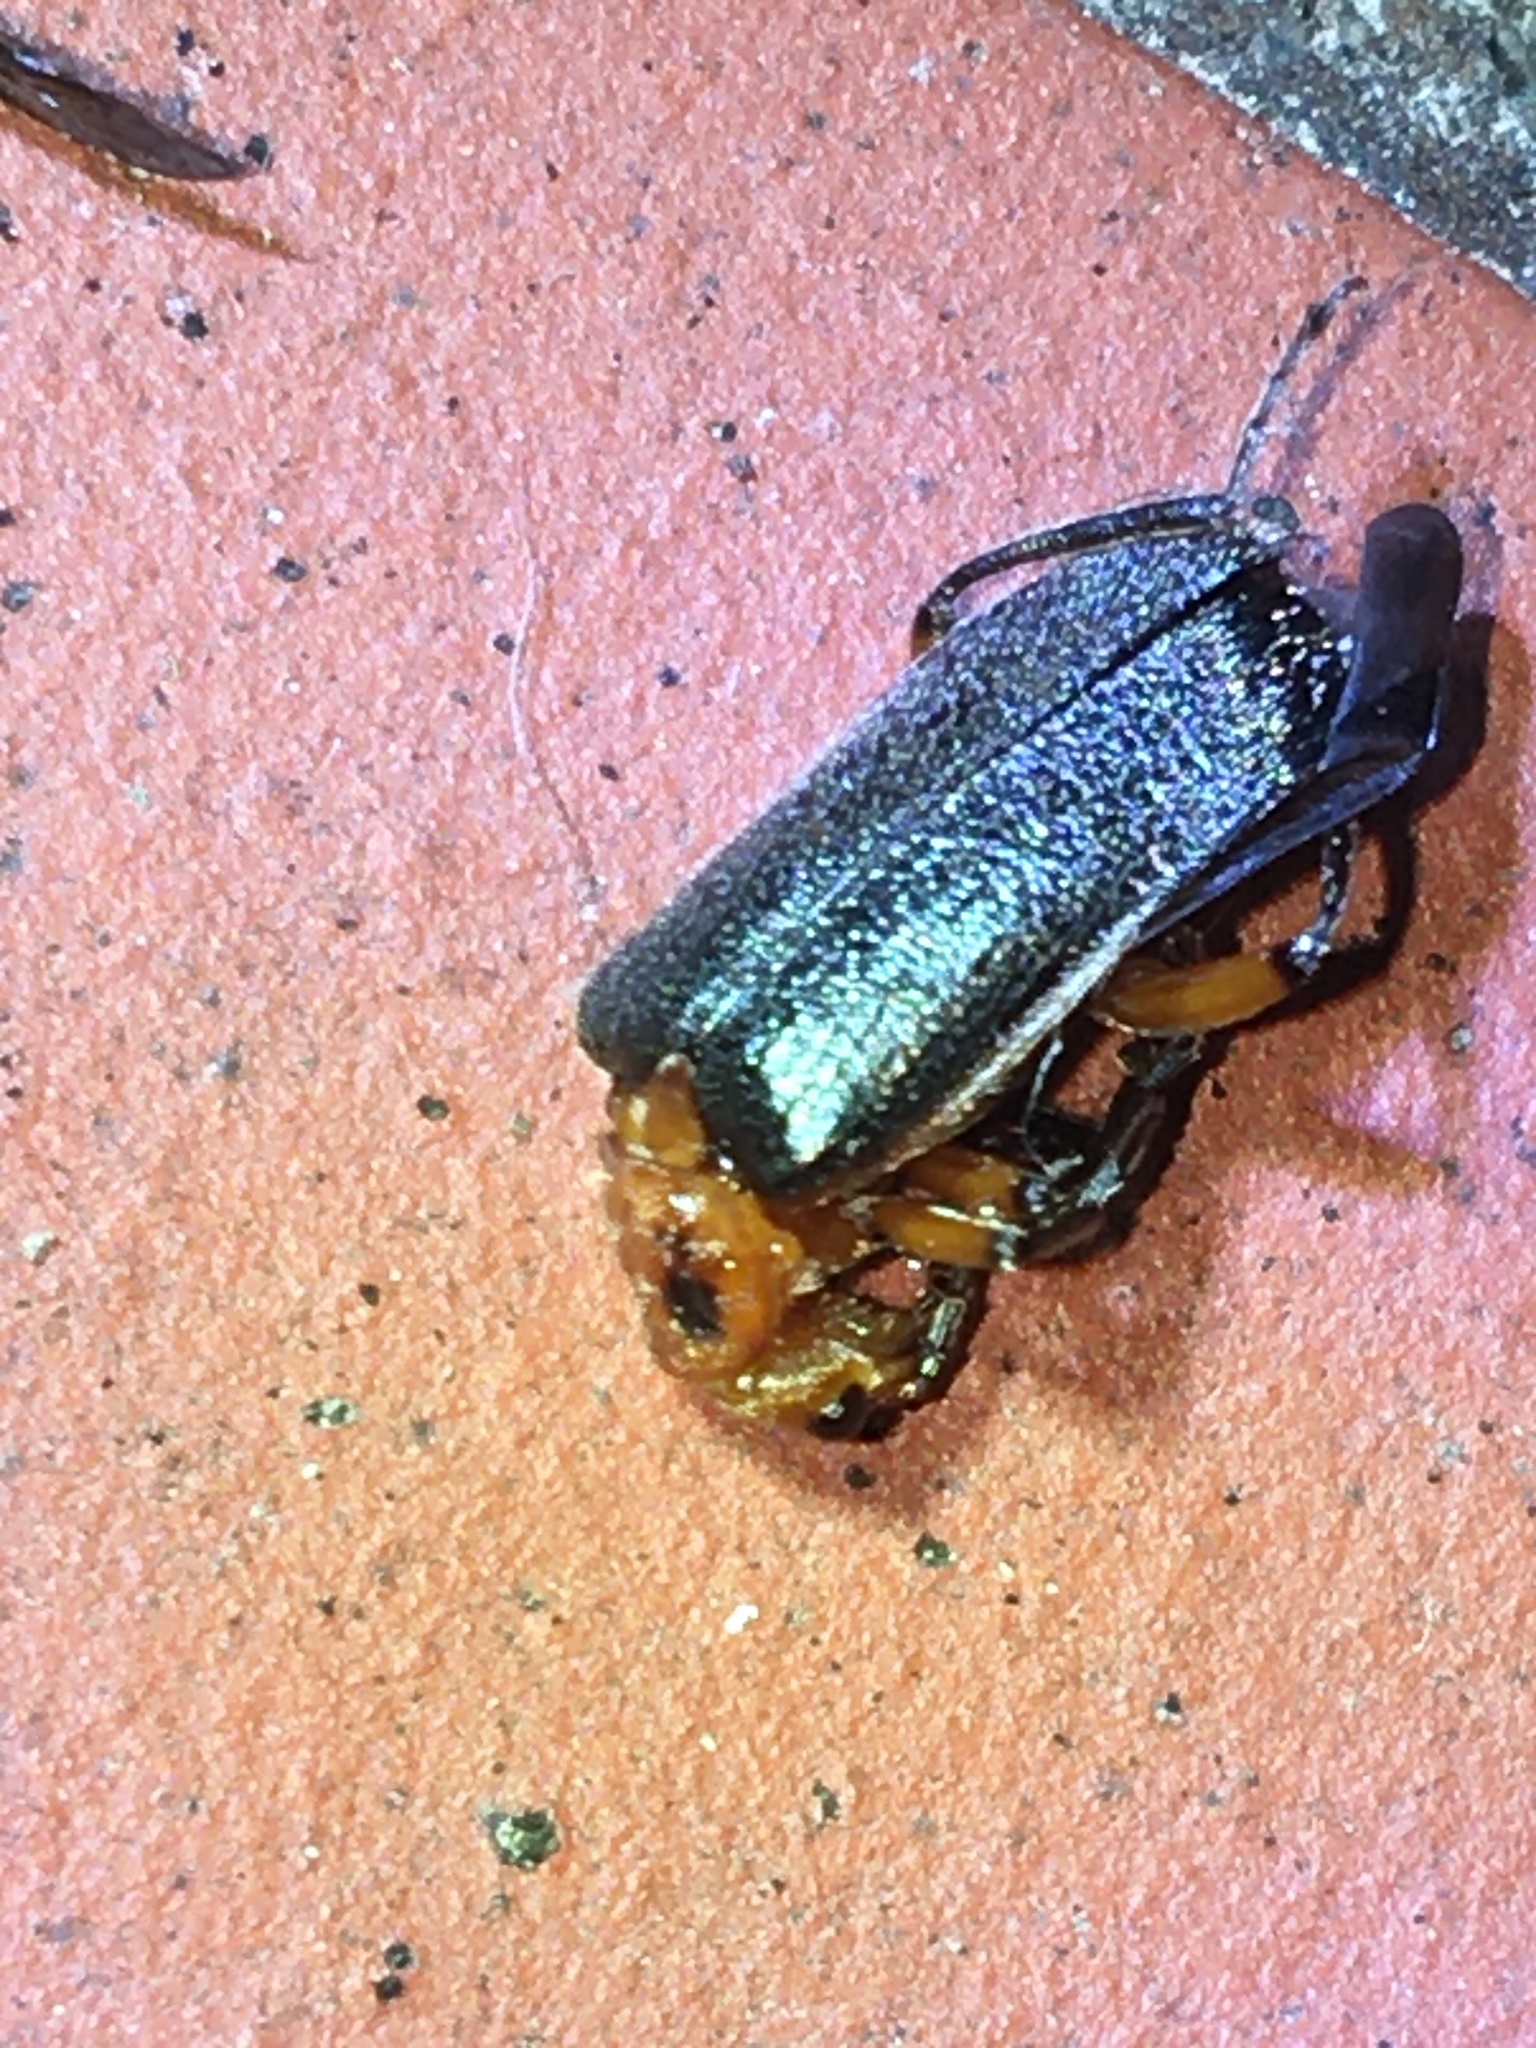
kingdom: Animalia
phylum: Arthropoda
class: Insecta
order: Coleoptera
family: Cantharidae
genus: Atalantycha
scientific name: Atalantycha bilineata
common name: Two-lined leatherwing
